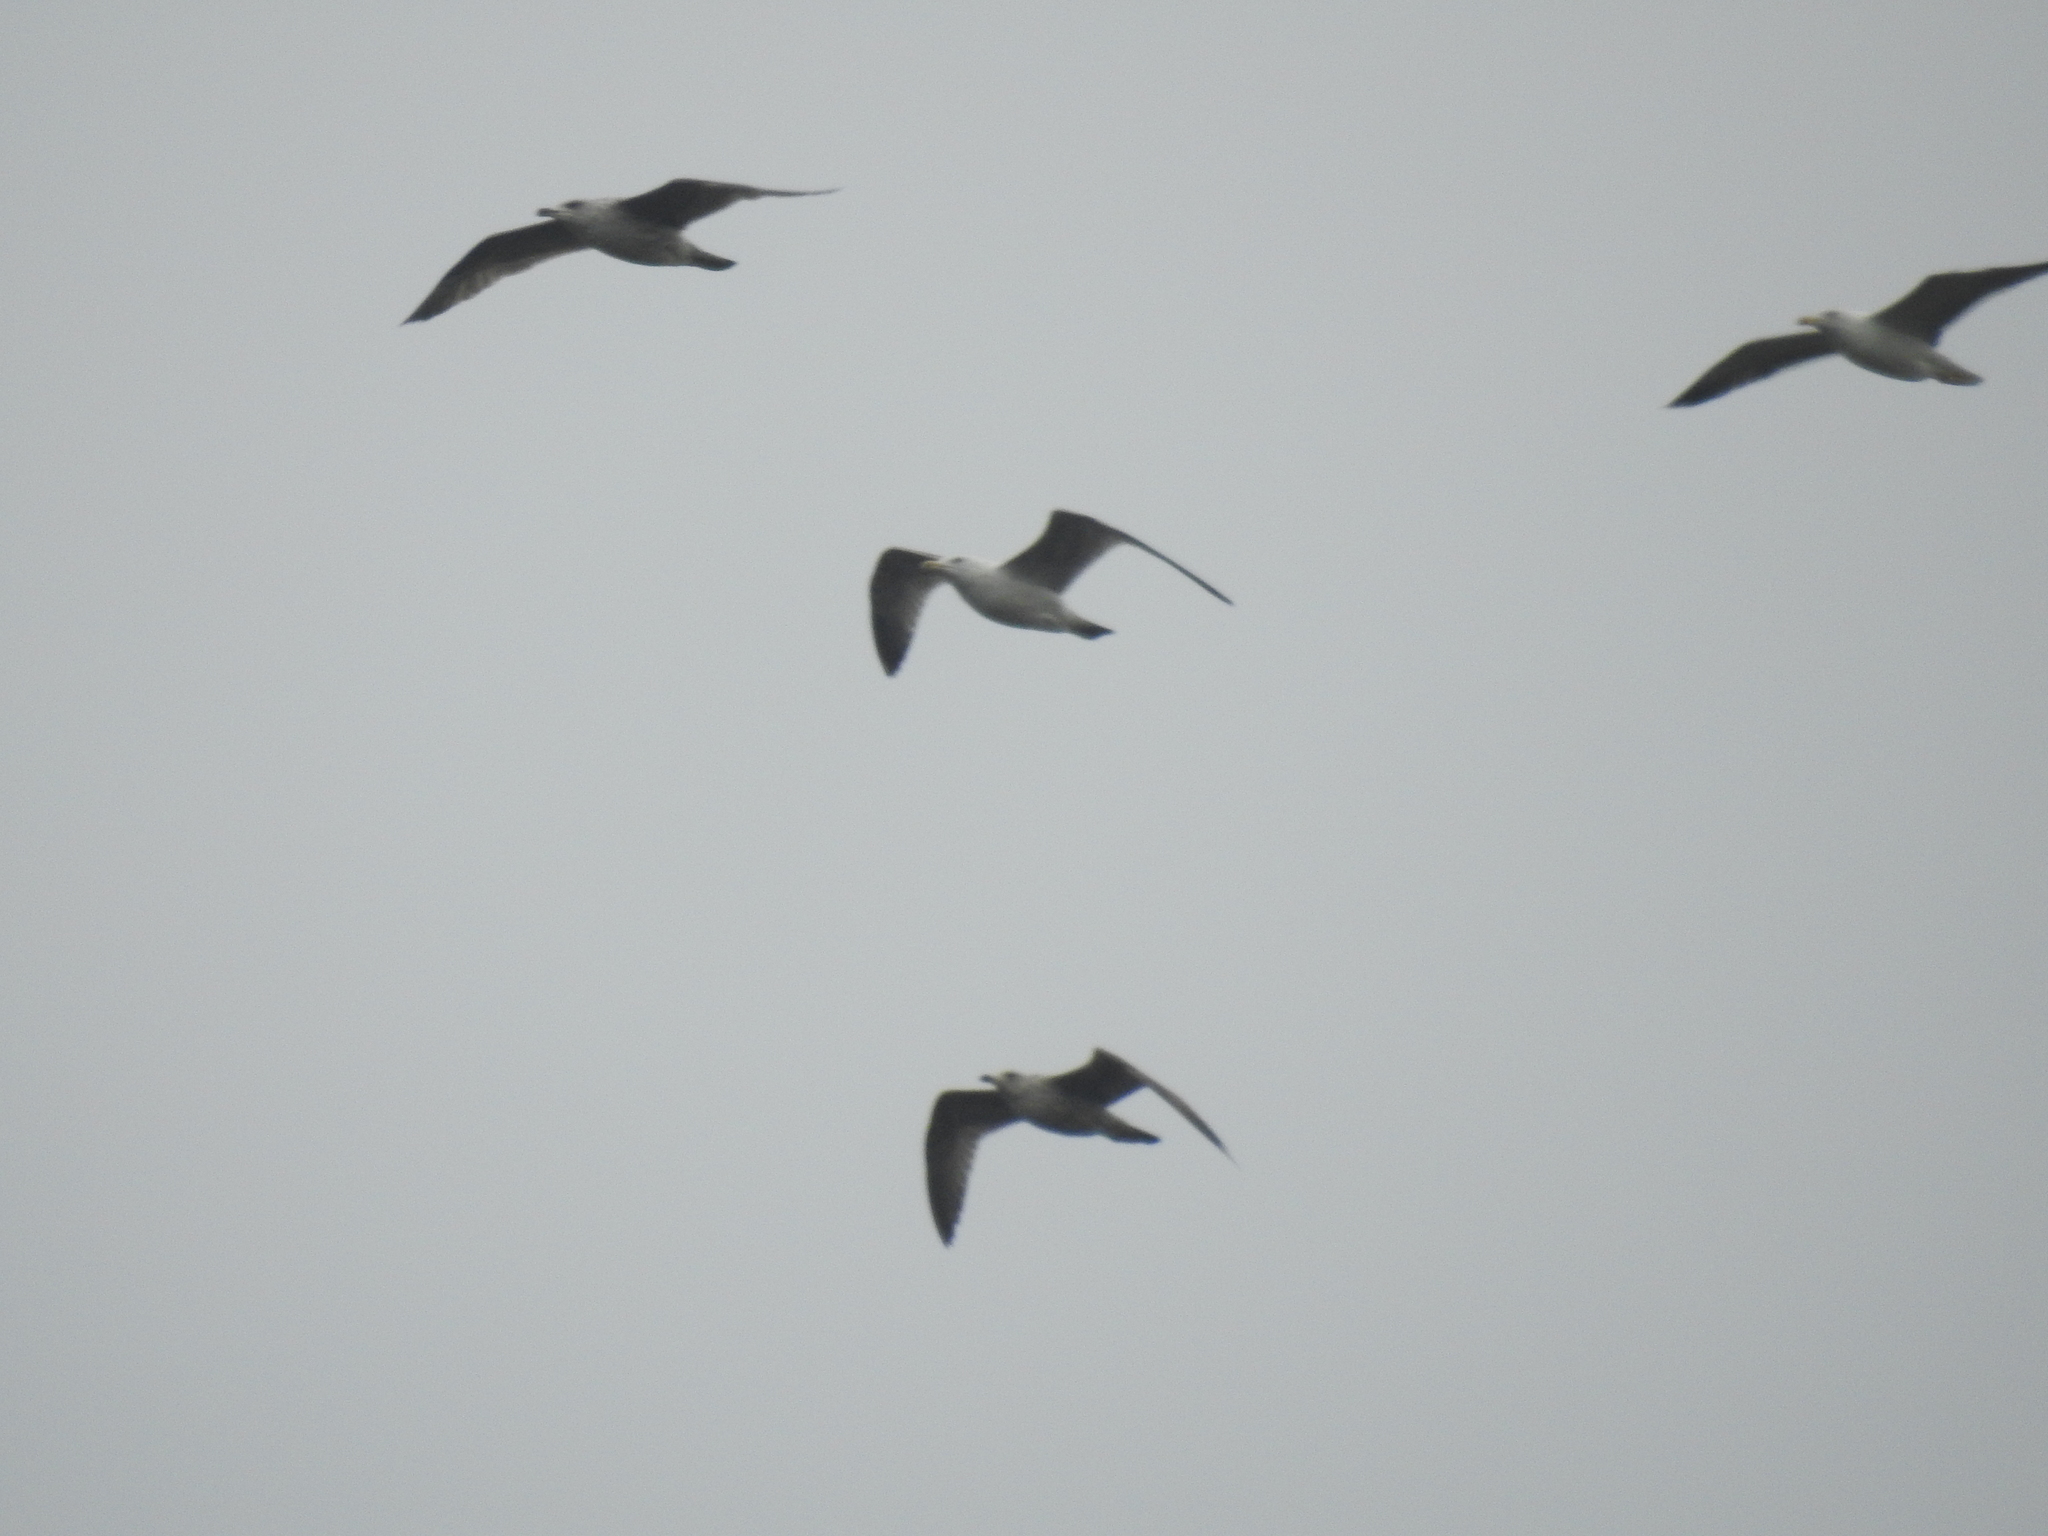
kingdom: Animalia
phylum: Chordata
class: Aves
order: Charadriiformes
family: Laridae
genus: Larus
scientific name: Larus argentatus
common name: Herring gull
